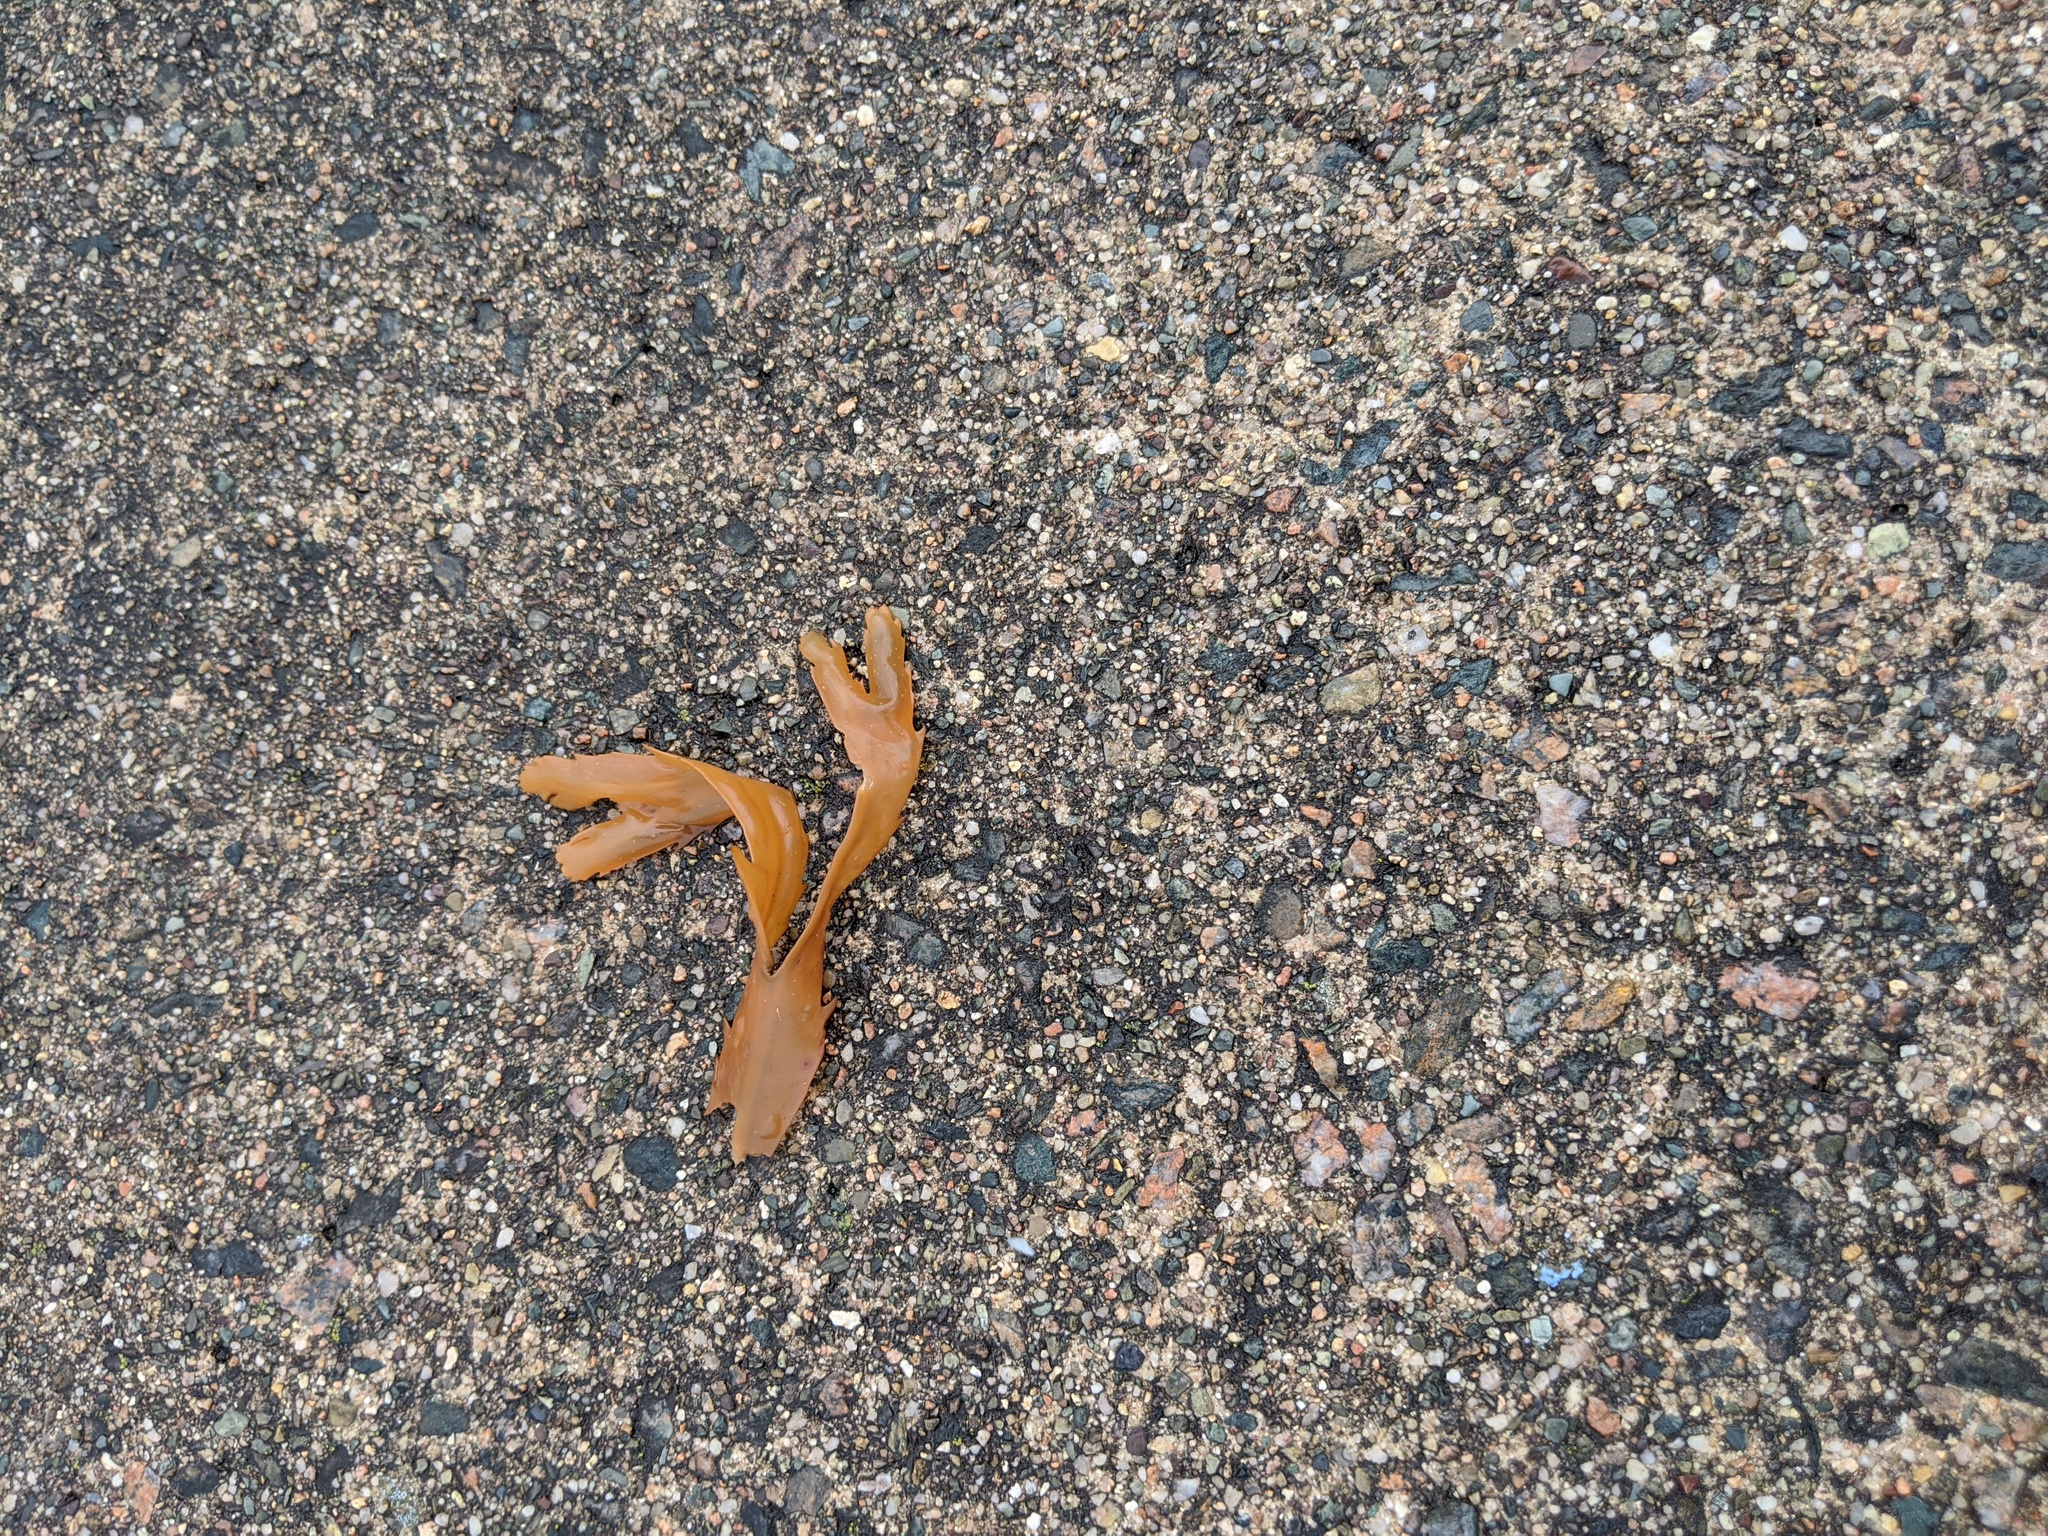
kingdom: Chromista
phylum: Ochrophyta
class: Phaeophyceae
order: Fucales
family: Fucaceae
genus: Fucus
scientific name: Fucus serratus
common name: Toothed wrack
